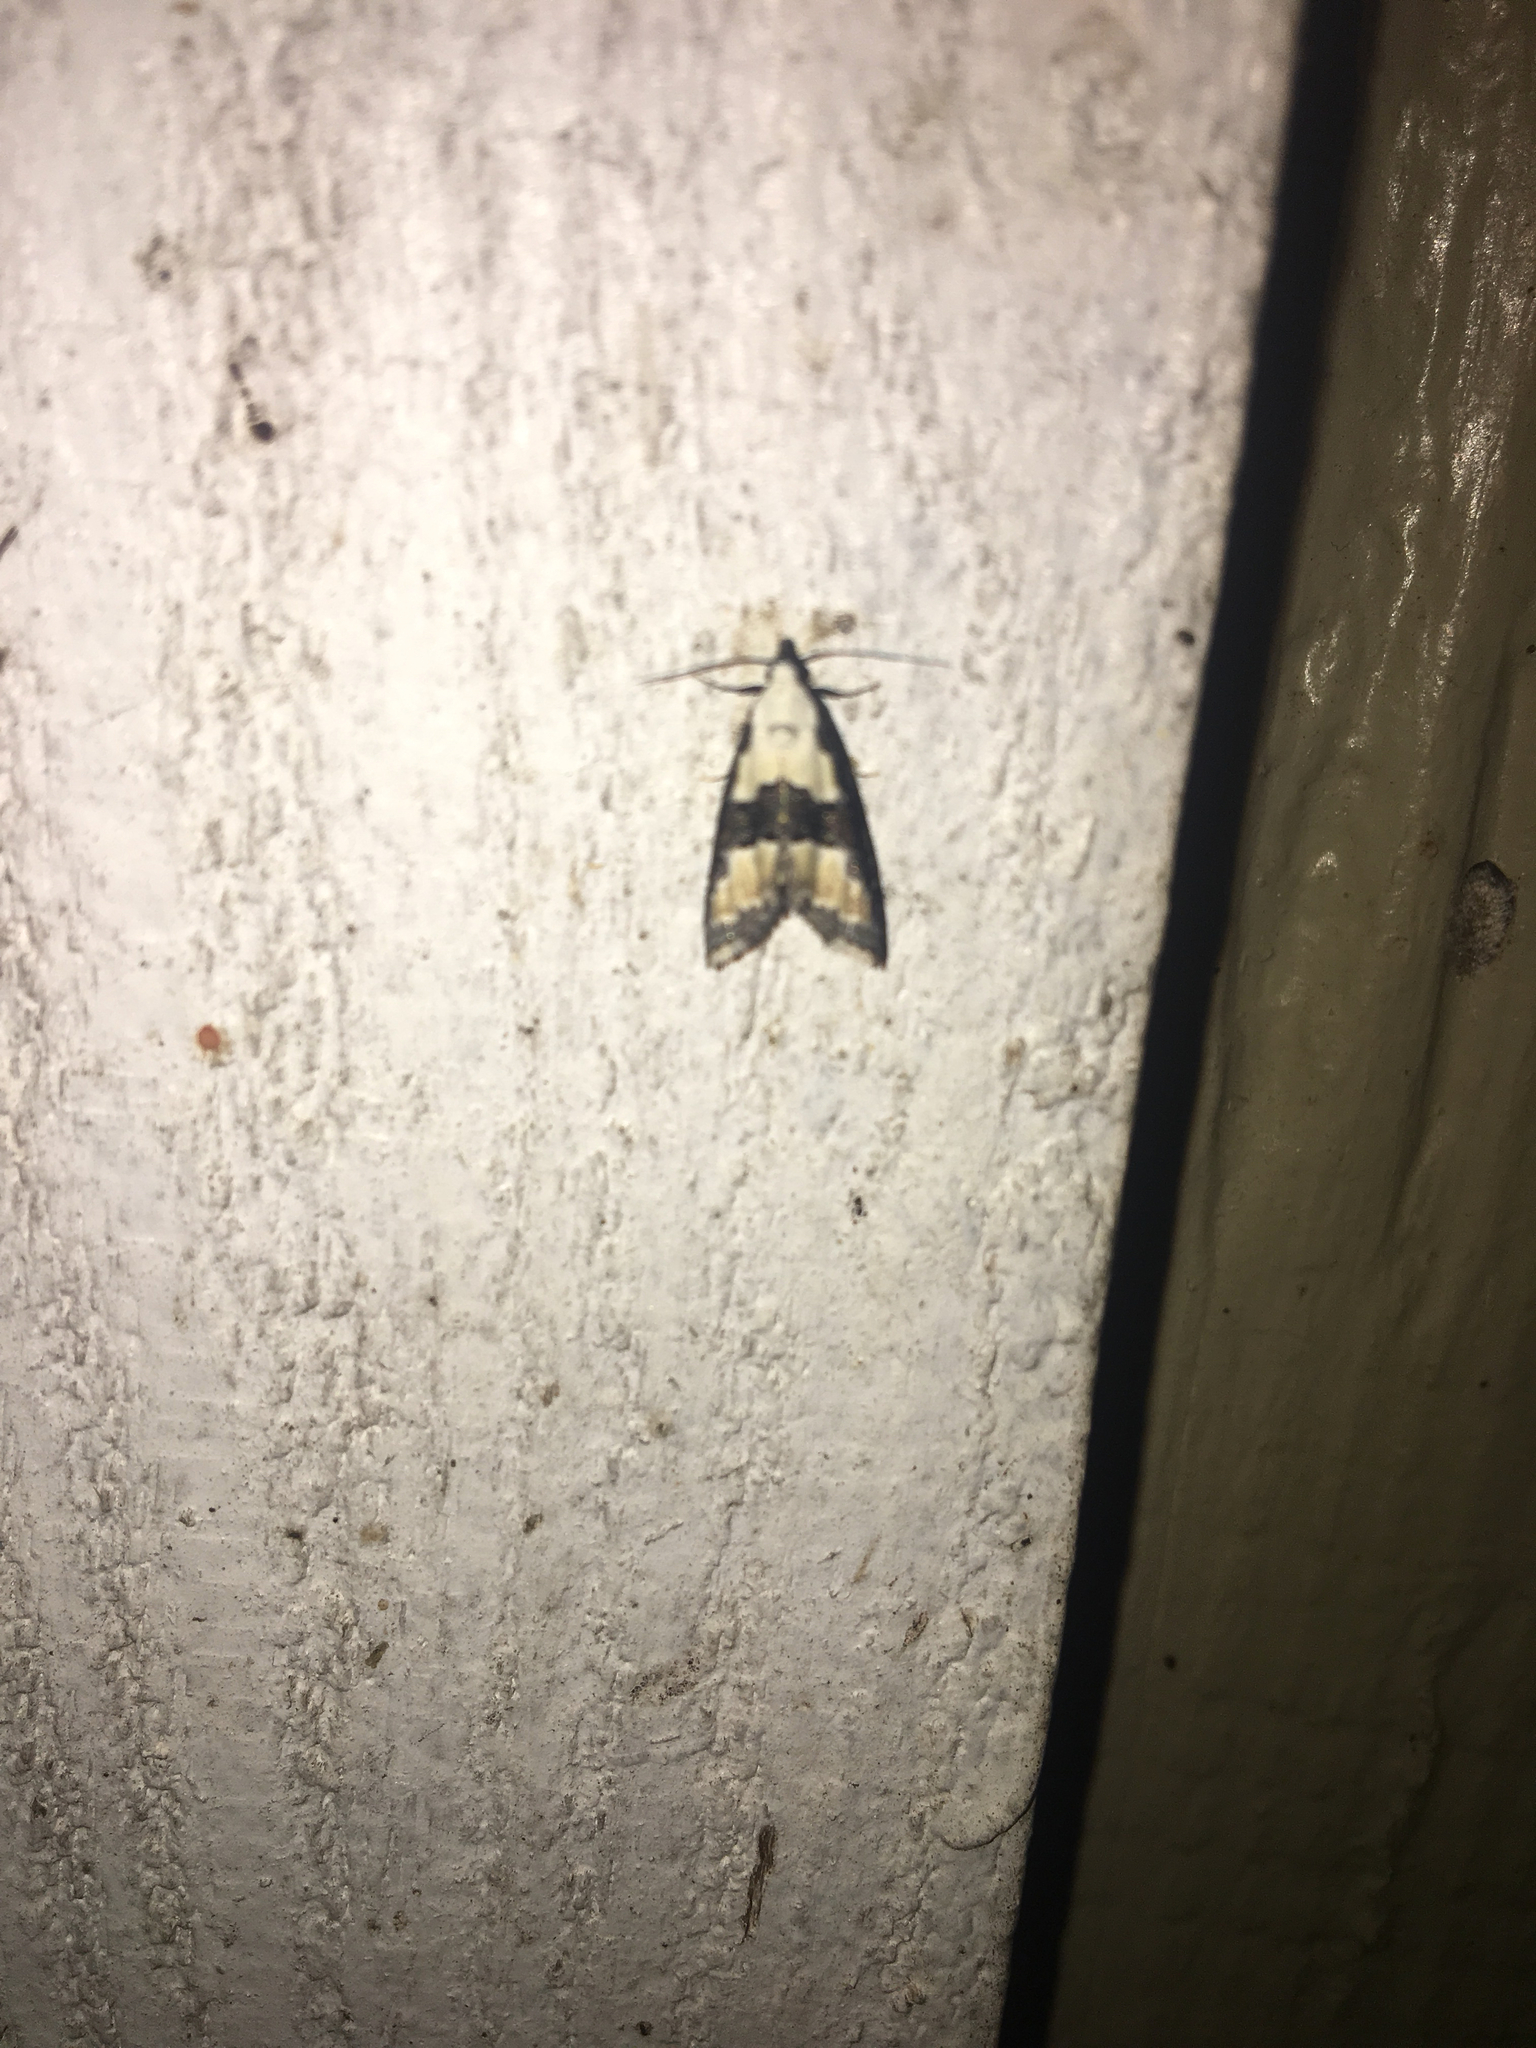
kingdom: Animalia
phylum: Arthropoda
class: Insecta
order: Lepidoptera
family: Noctuidae
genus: Nigetia
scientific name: Nigetia formosalis
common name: Thin-winged owlet
